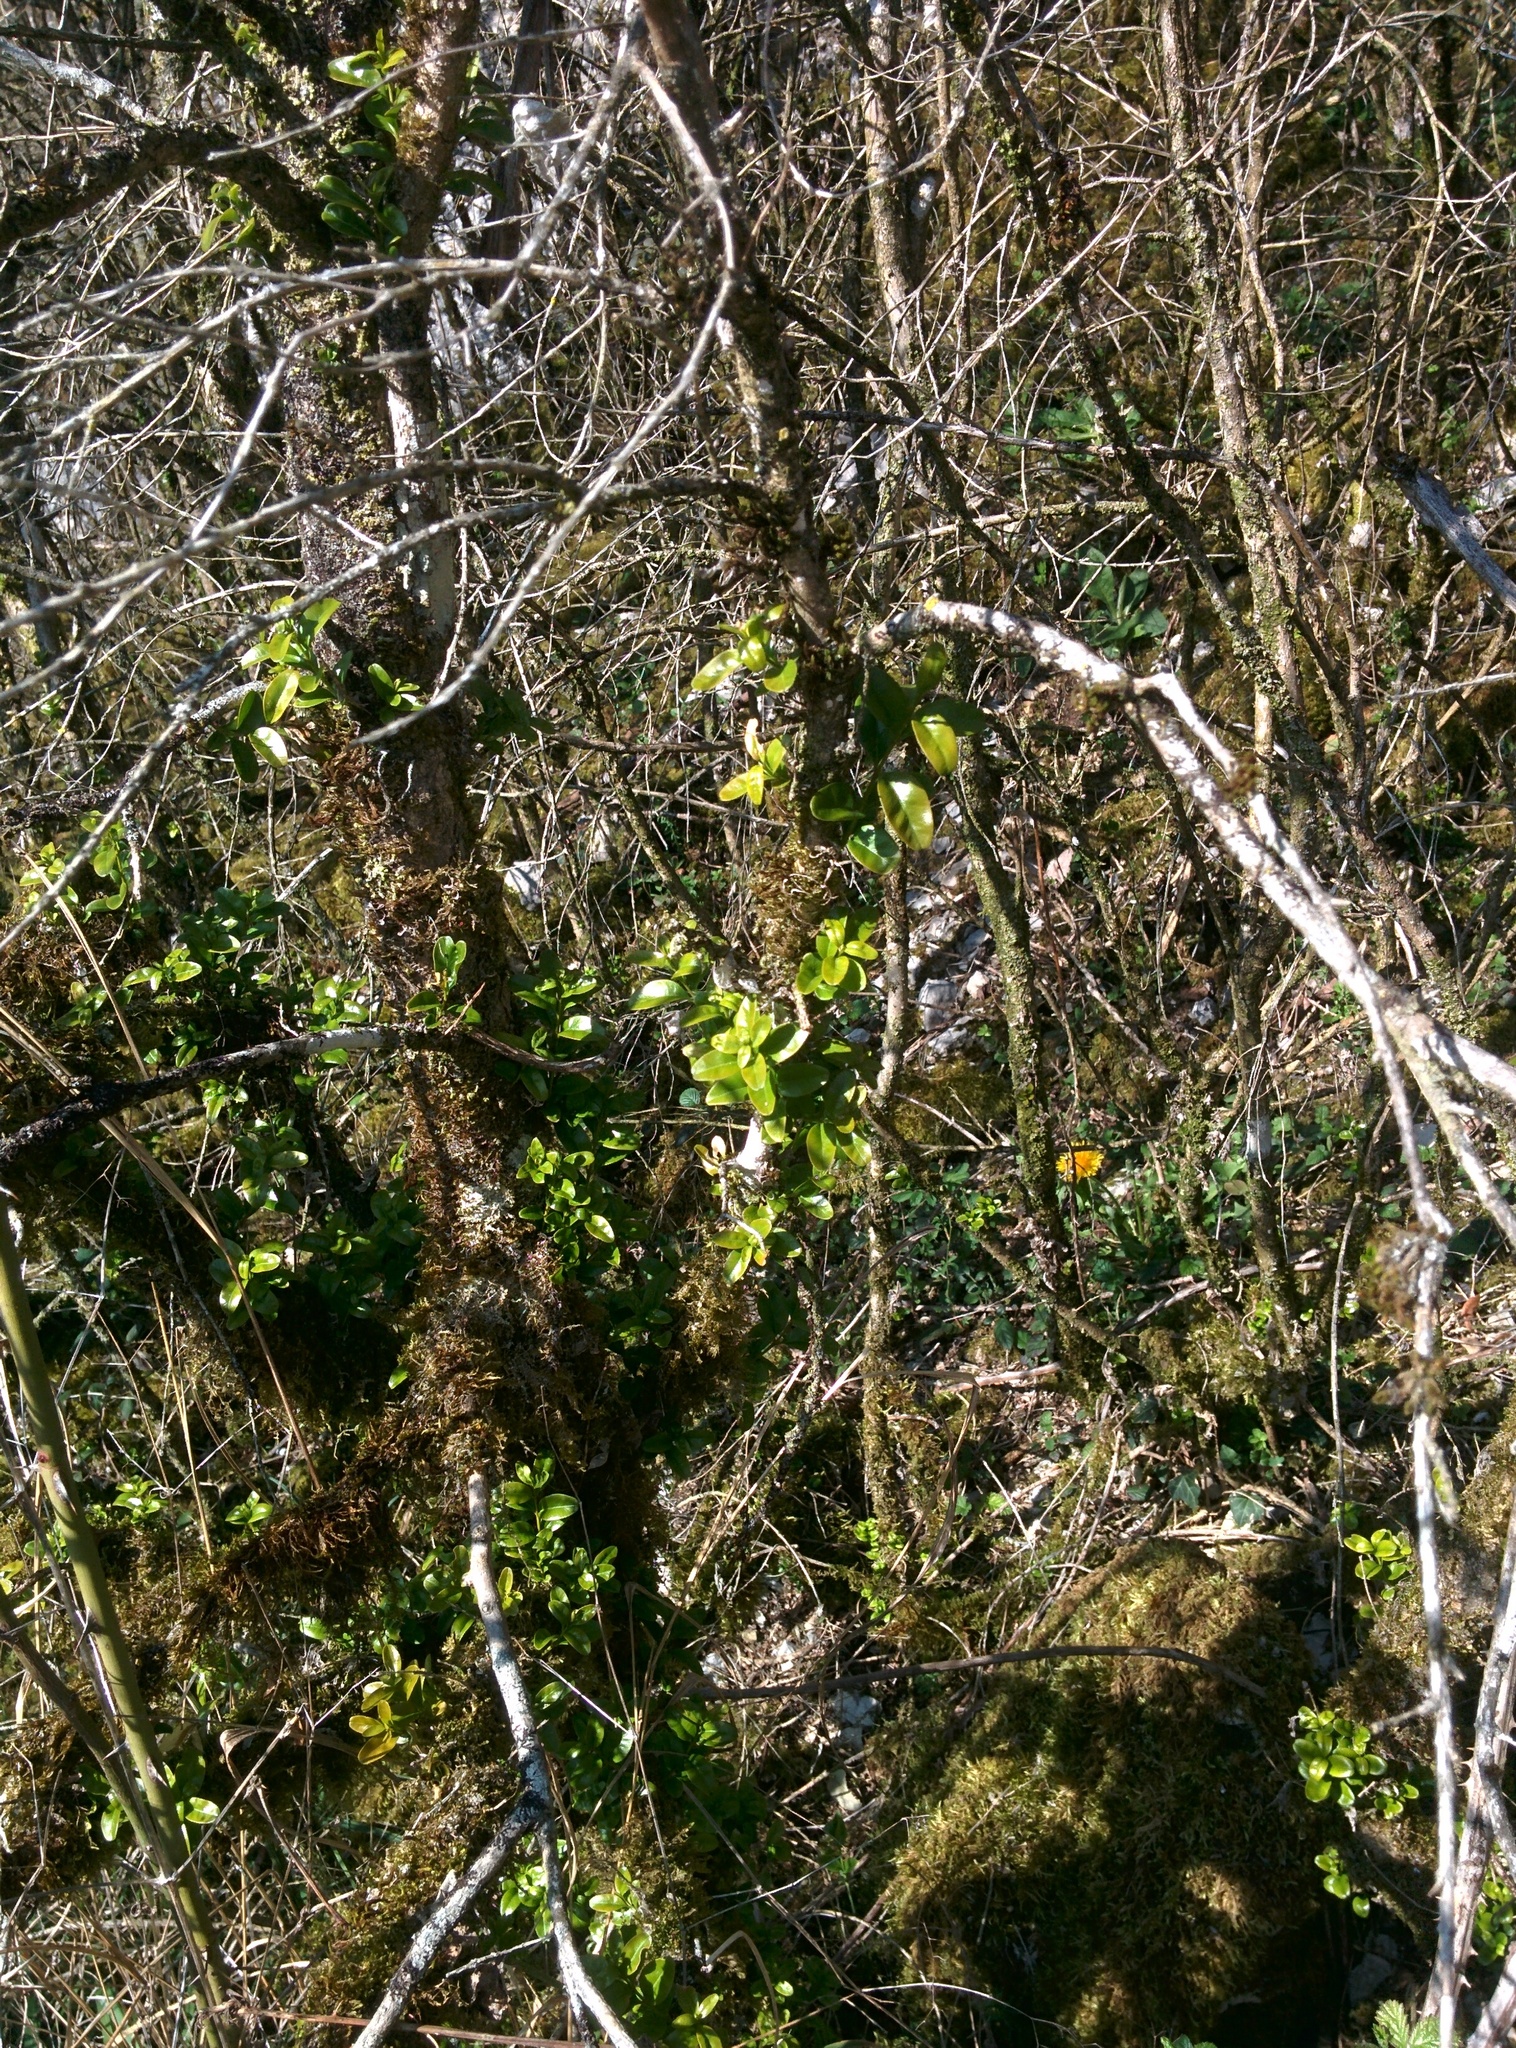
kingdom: Plantae
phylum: Tracheophyta
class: Magnoliopsida
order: Buxales
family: Buxaceae
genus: Buxus
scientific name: Buxus sempervirens
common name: Box
